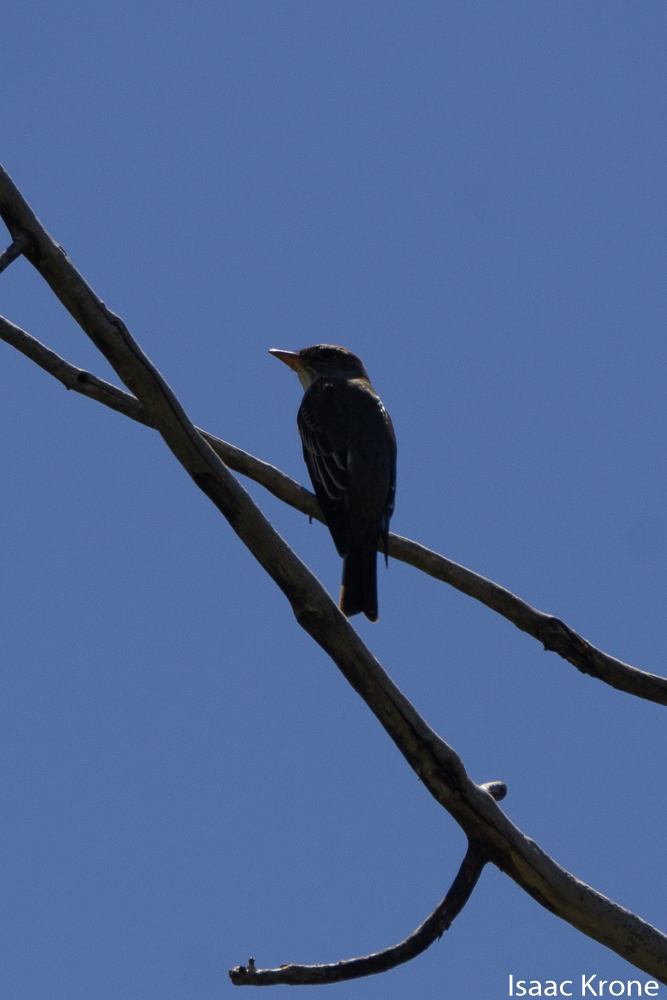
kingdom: Animalia
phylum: Chordata
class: Aves
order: Passeriformes
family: Tyrannidae
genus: Contopus
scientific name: Contopus cooperi
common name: Olive-sided flycatcher
